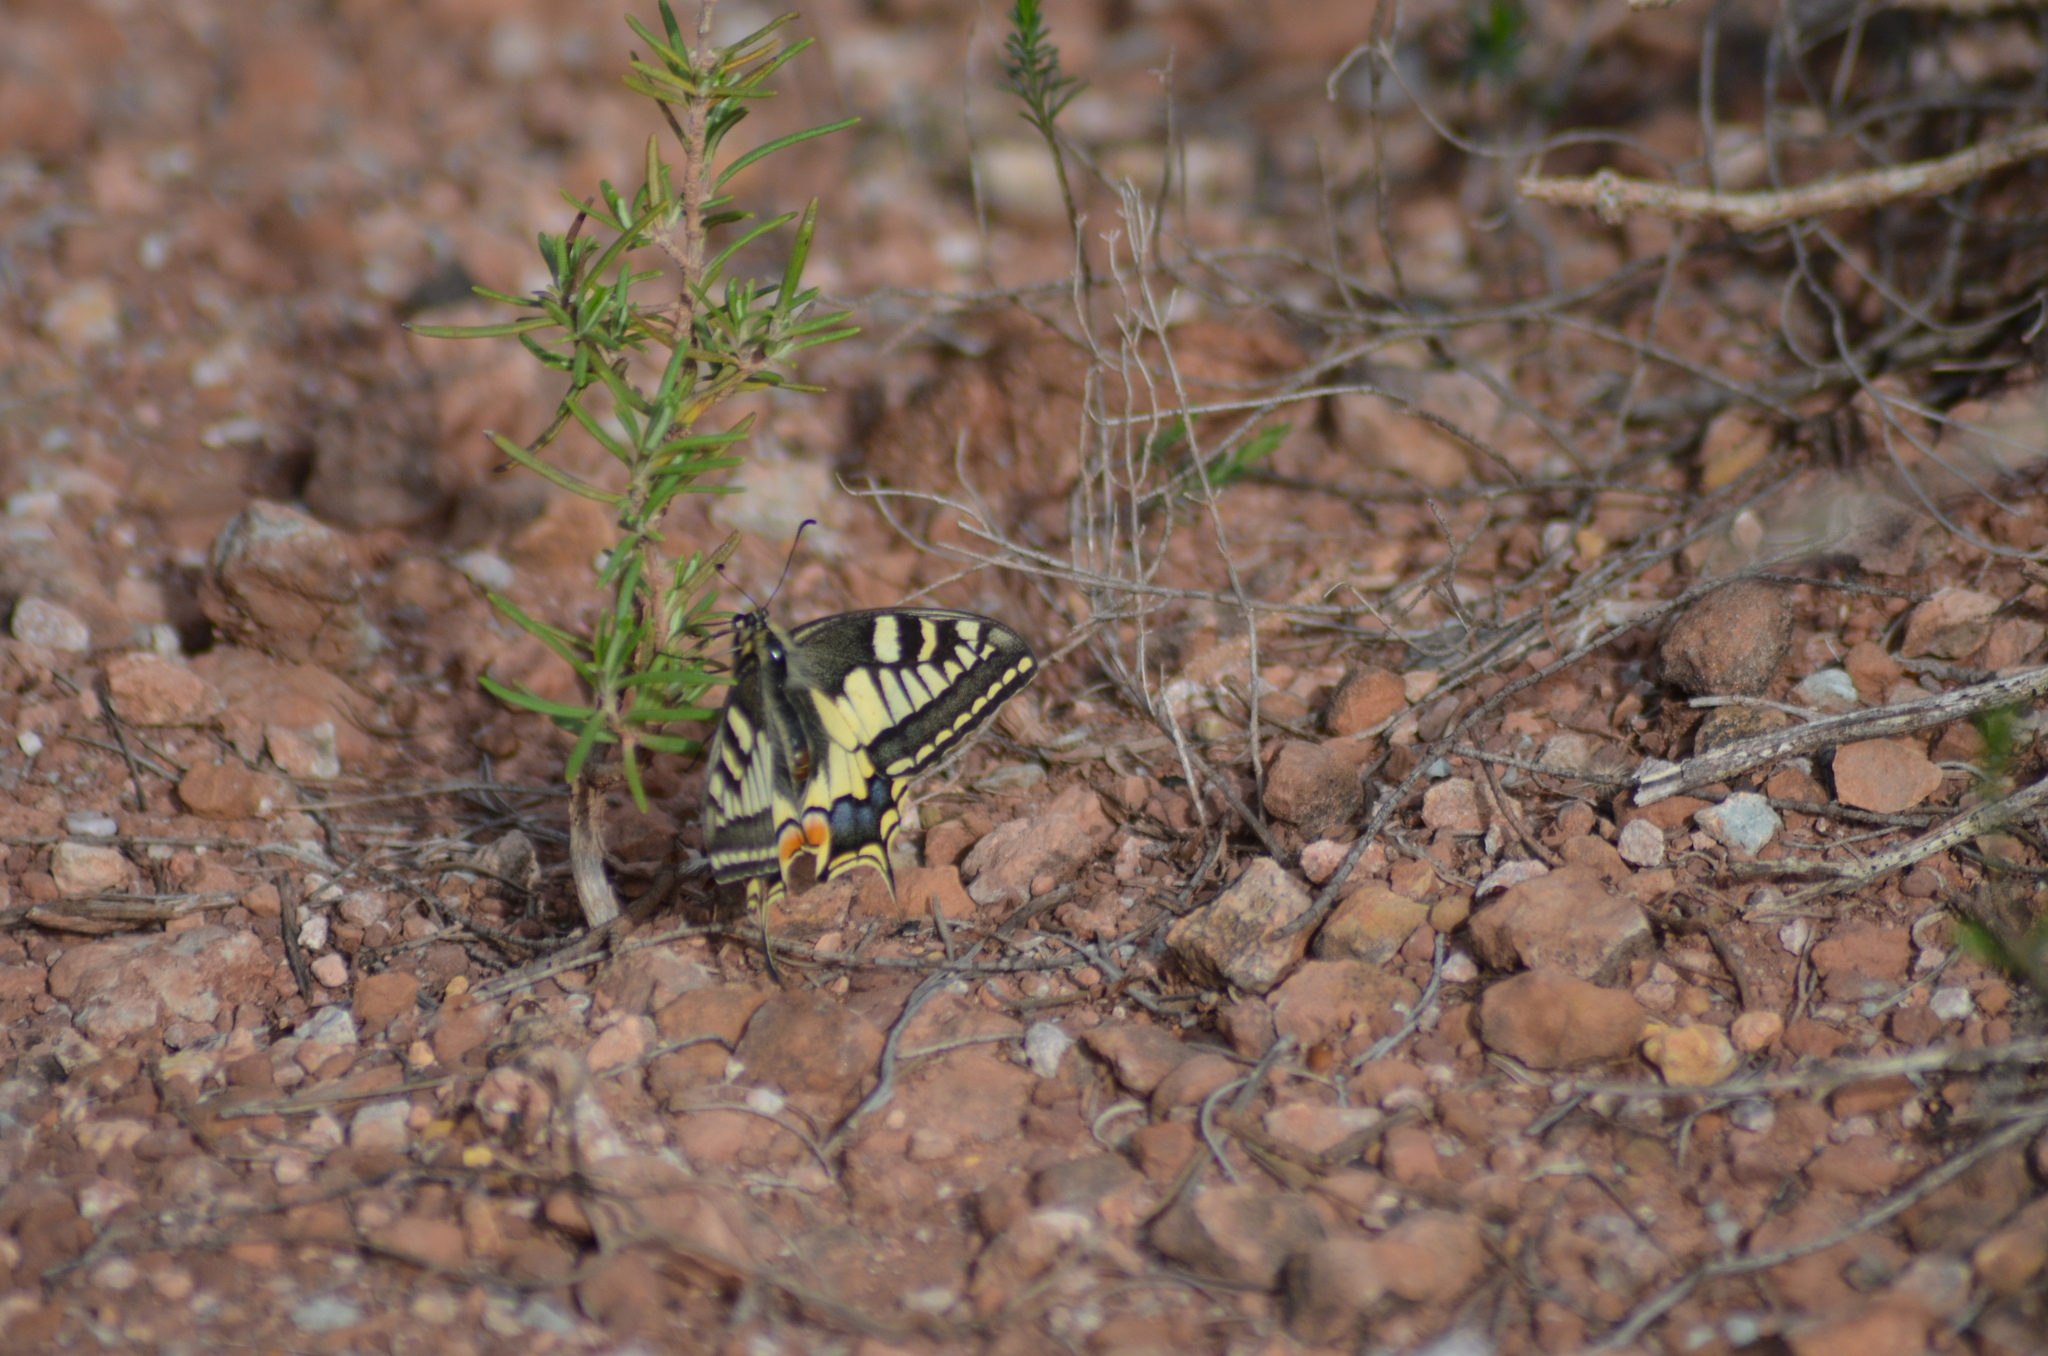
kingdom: Animalia
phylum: Arthropoda
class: Insecta
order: Lepidoptera
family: Papilionidae
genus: Papilio
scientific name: Papilio machaon
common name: Swallowtail
